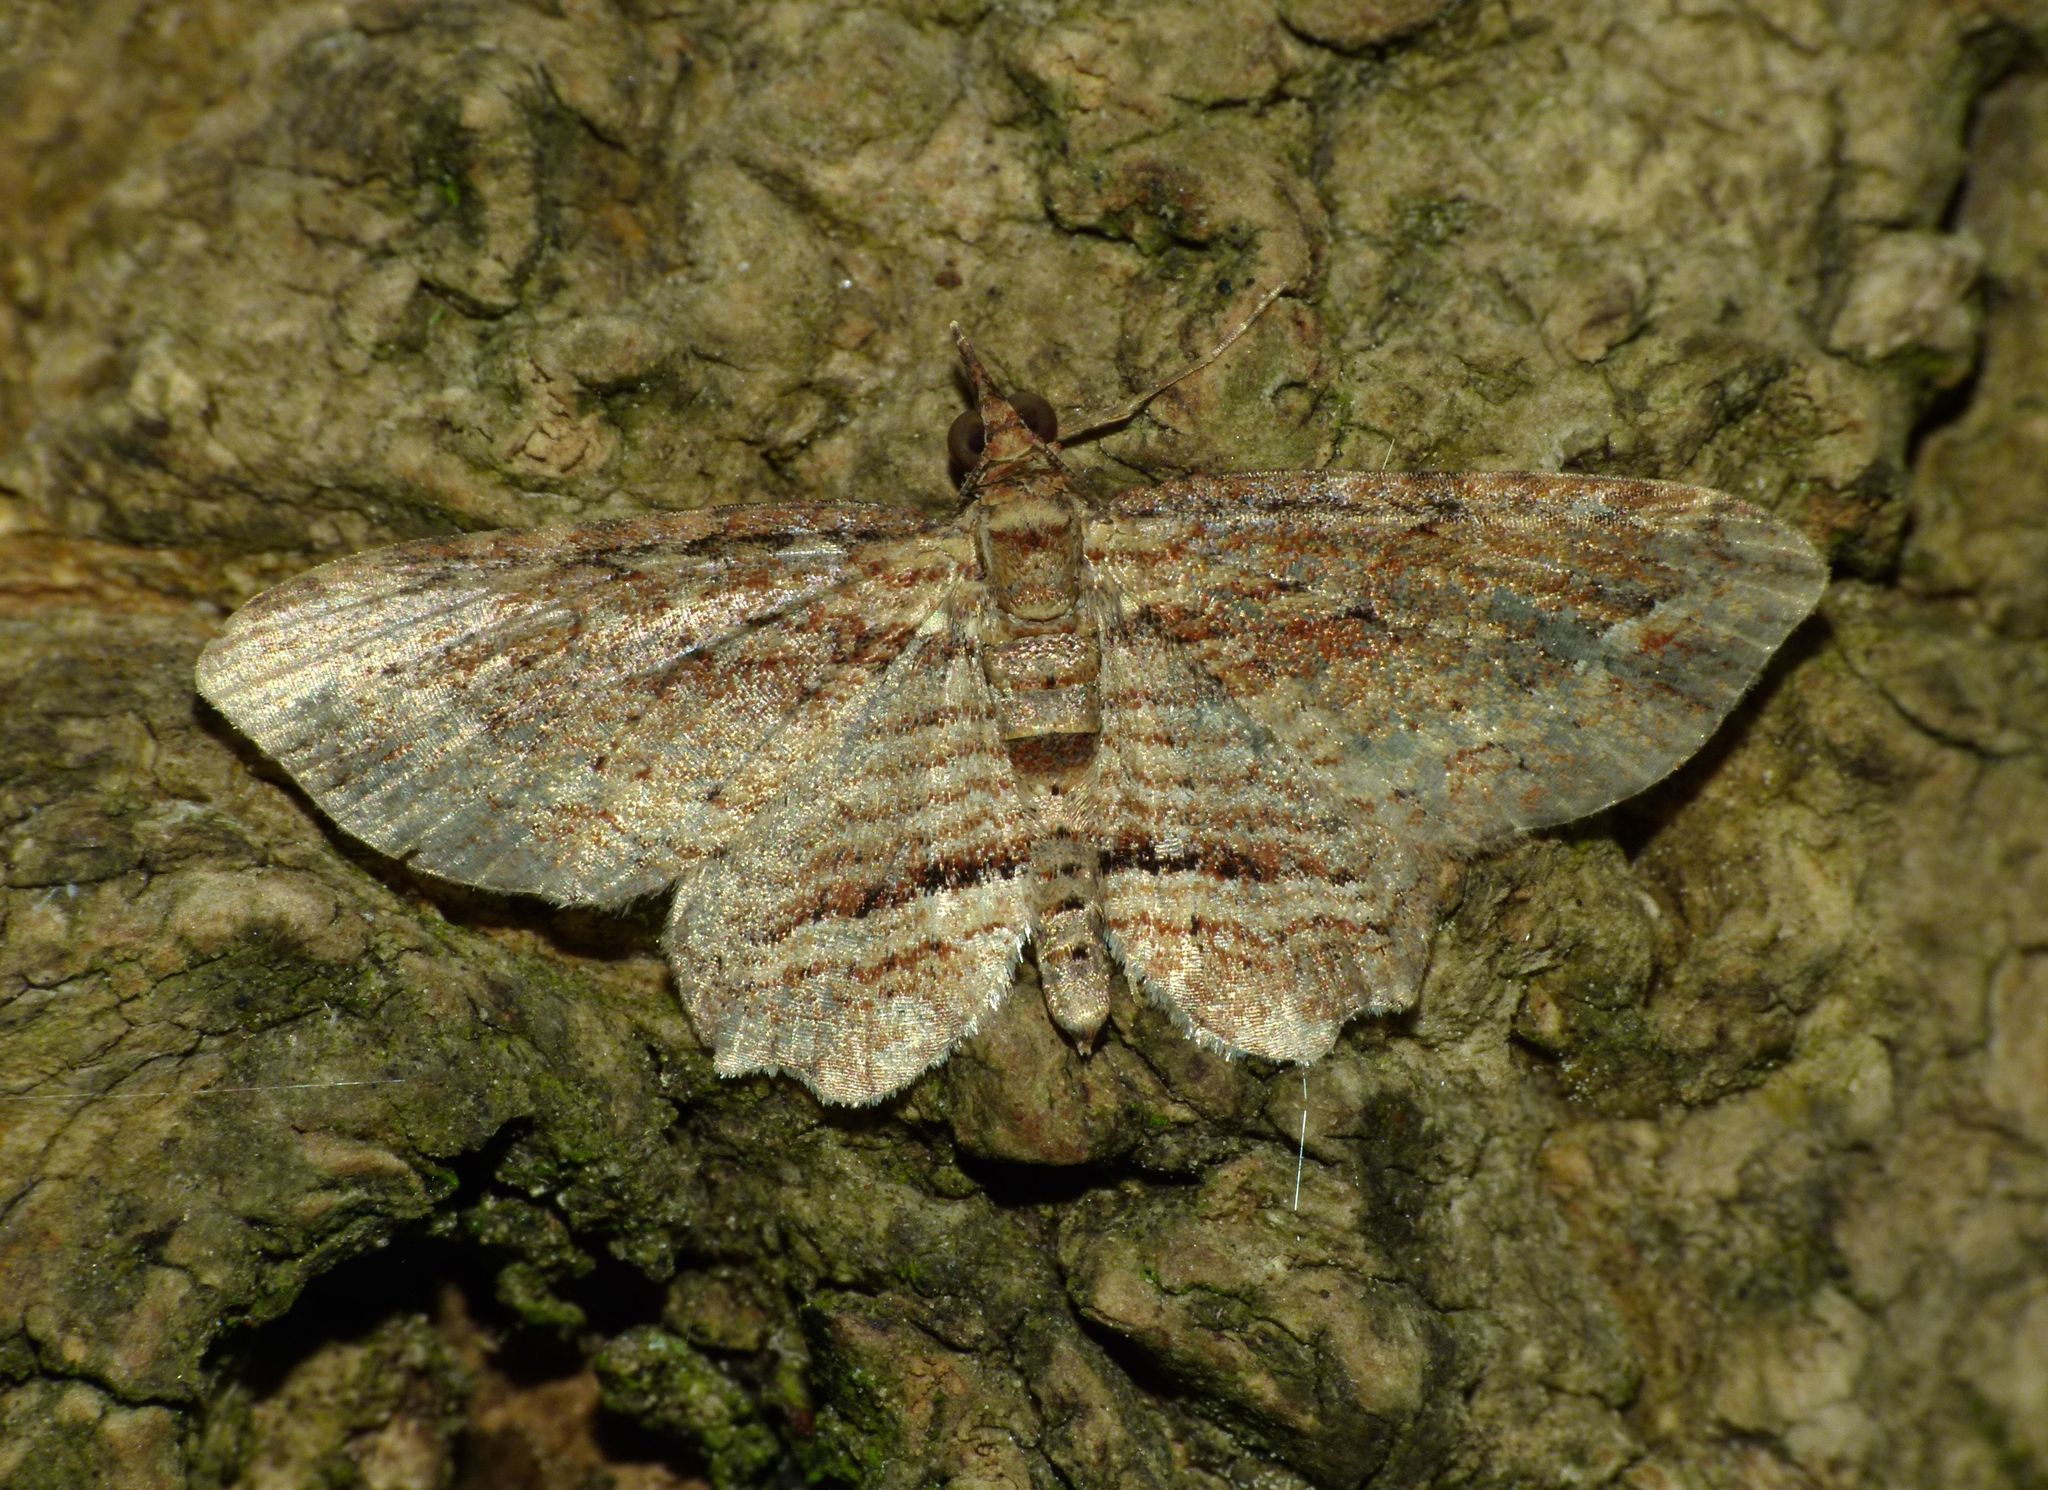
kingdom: Animalia
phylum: Arthropoda
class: Insecta
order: Lepidoptera
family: Geometridae
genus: Chloroclystis
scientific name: Chloroclystis filata
